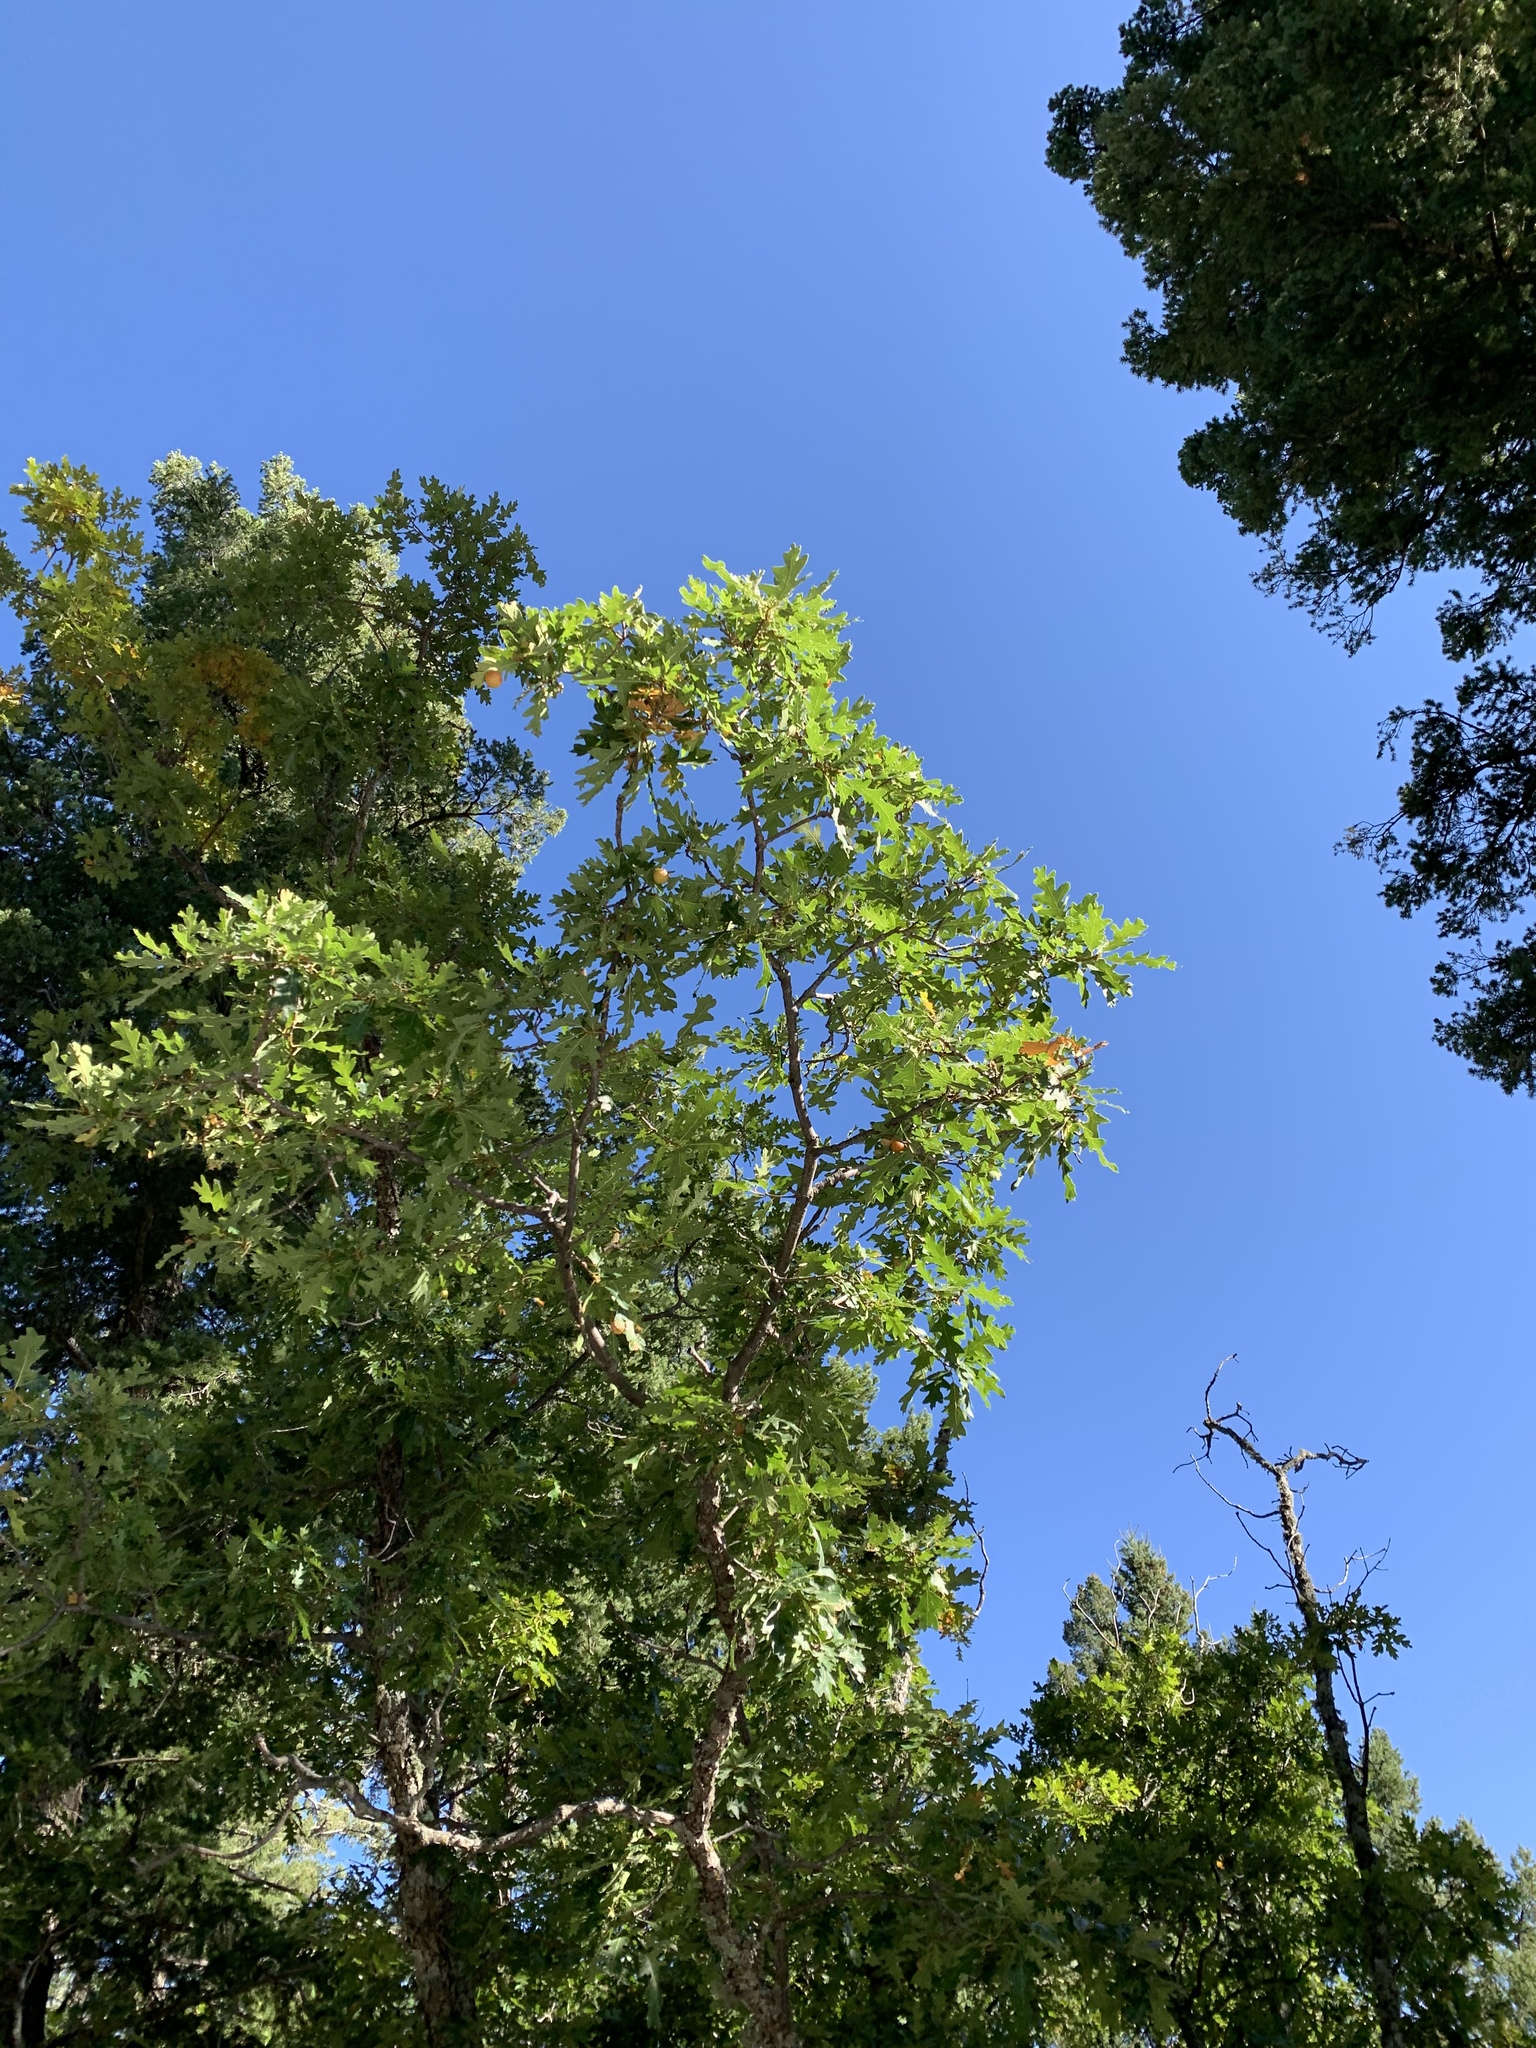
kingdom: Plantae
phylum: Tracheophyta
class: Magnoliopsida
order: Fagales
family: Fagaceae
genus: Quercus
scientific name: Quercus gambelii
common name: Gambel oak
